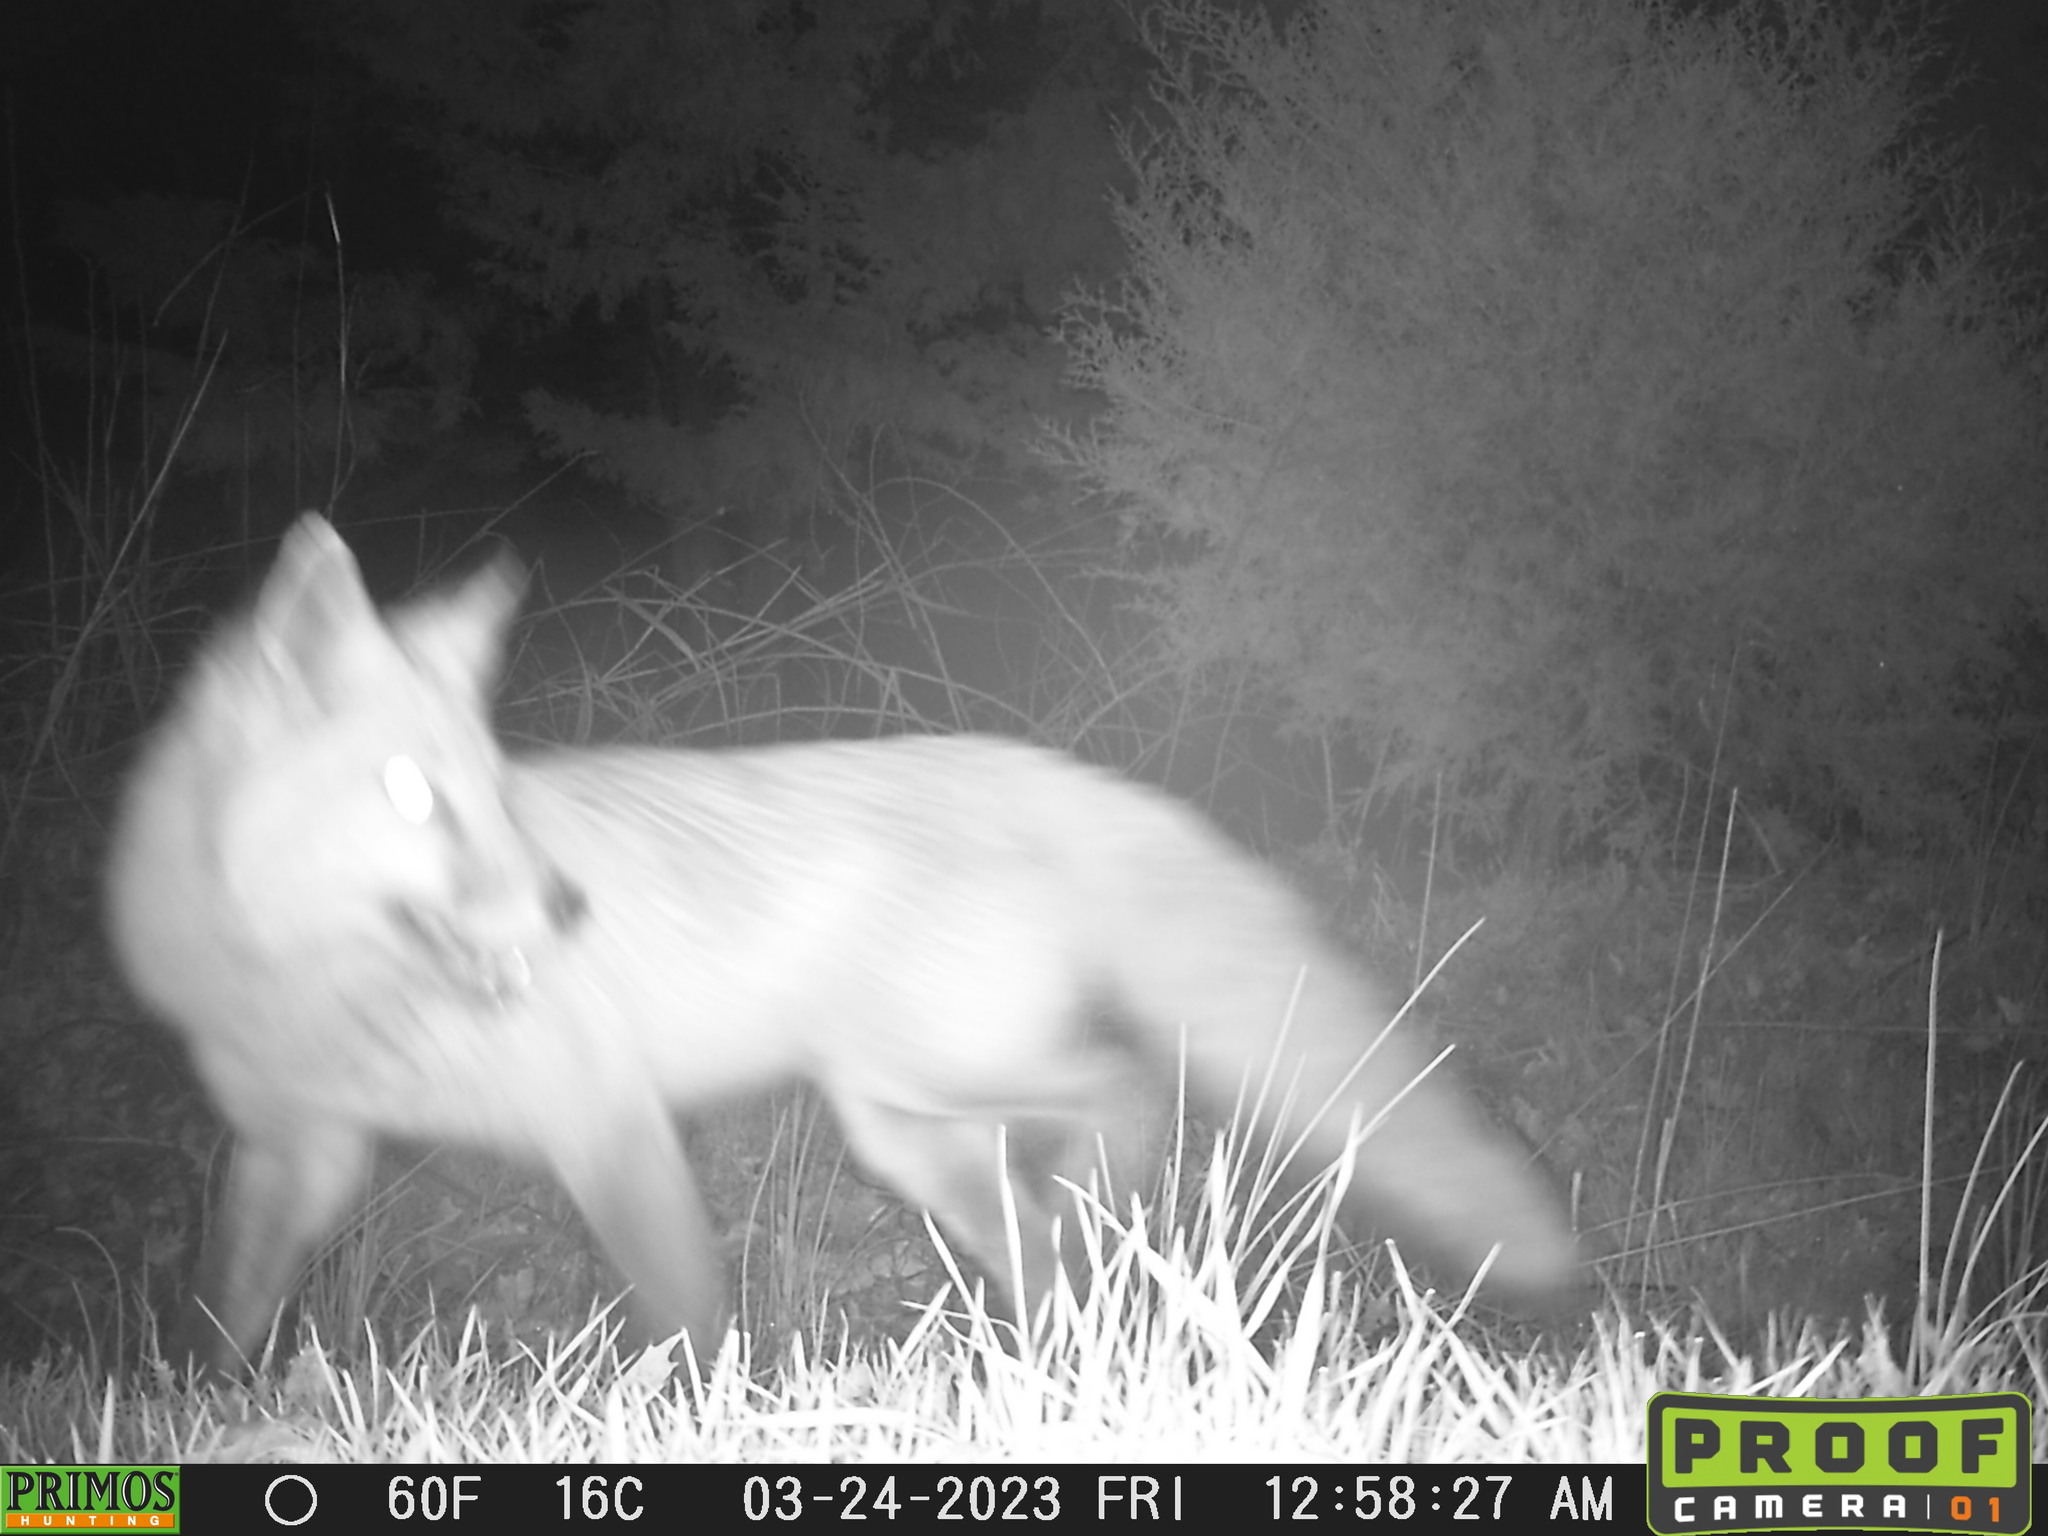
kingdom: Animalia
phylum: Chordata
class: Mammalia
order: Carnivora
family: Canidae
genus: Vulpes
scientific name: Vulpes vulpes
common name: Red fox
